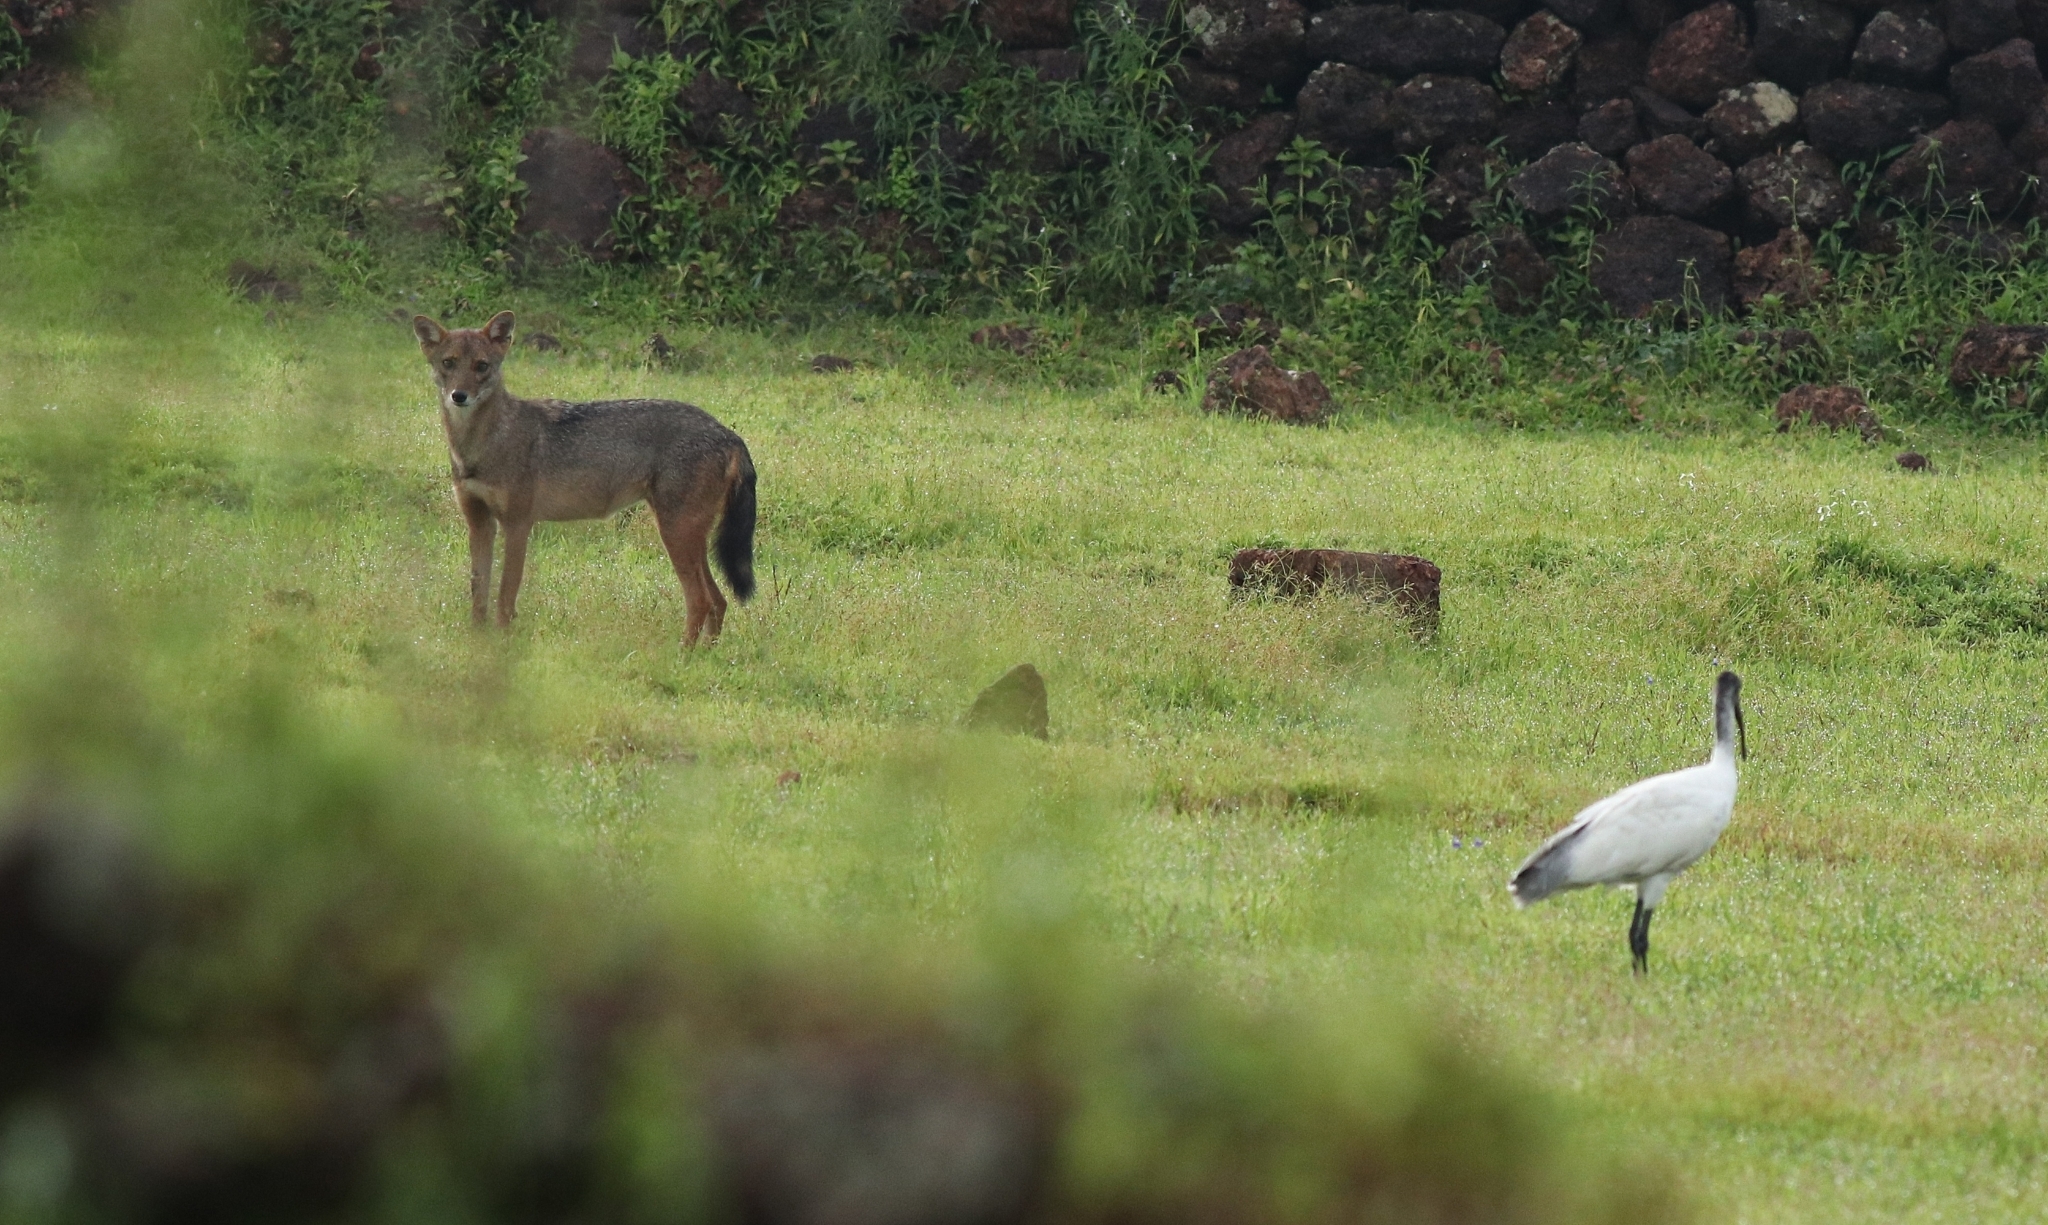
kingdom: Animalia
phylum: Chordata
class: Aves
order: Pelecaniformes
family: Threskiornithidae
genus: Threskiornis
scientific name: Threskiornis melanocephalus
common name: Black-headed ibis
